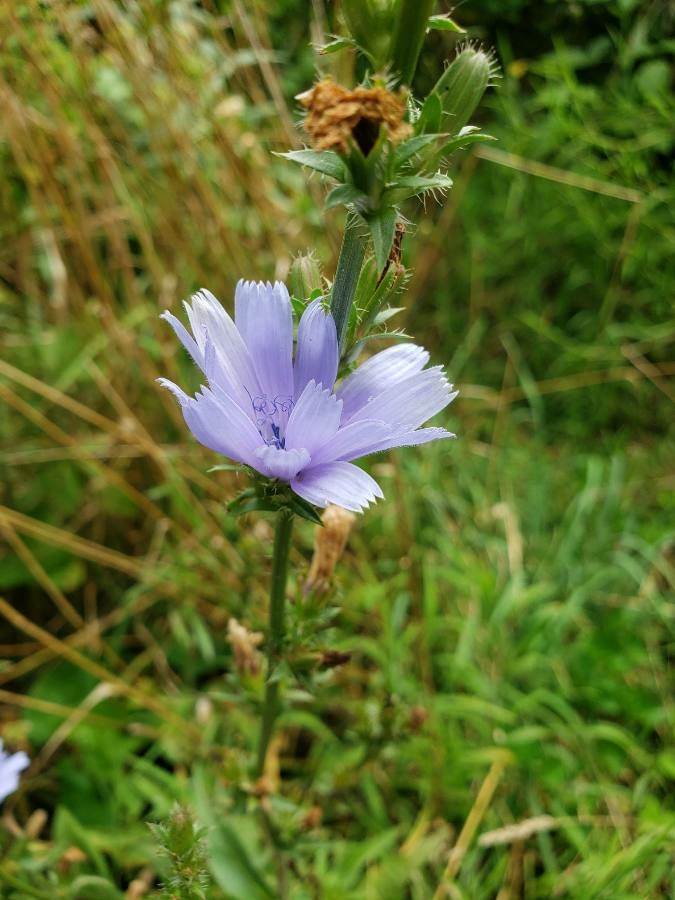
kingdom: Plantae
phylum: Tracheophyta
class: Magnoliopsida
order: Asterales
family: Asteraceae
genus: Cichorium
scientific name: Cichorium intybus
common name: Chicory
